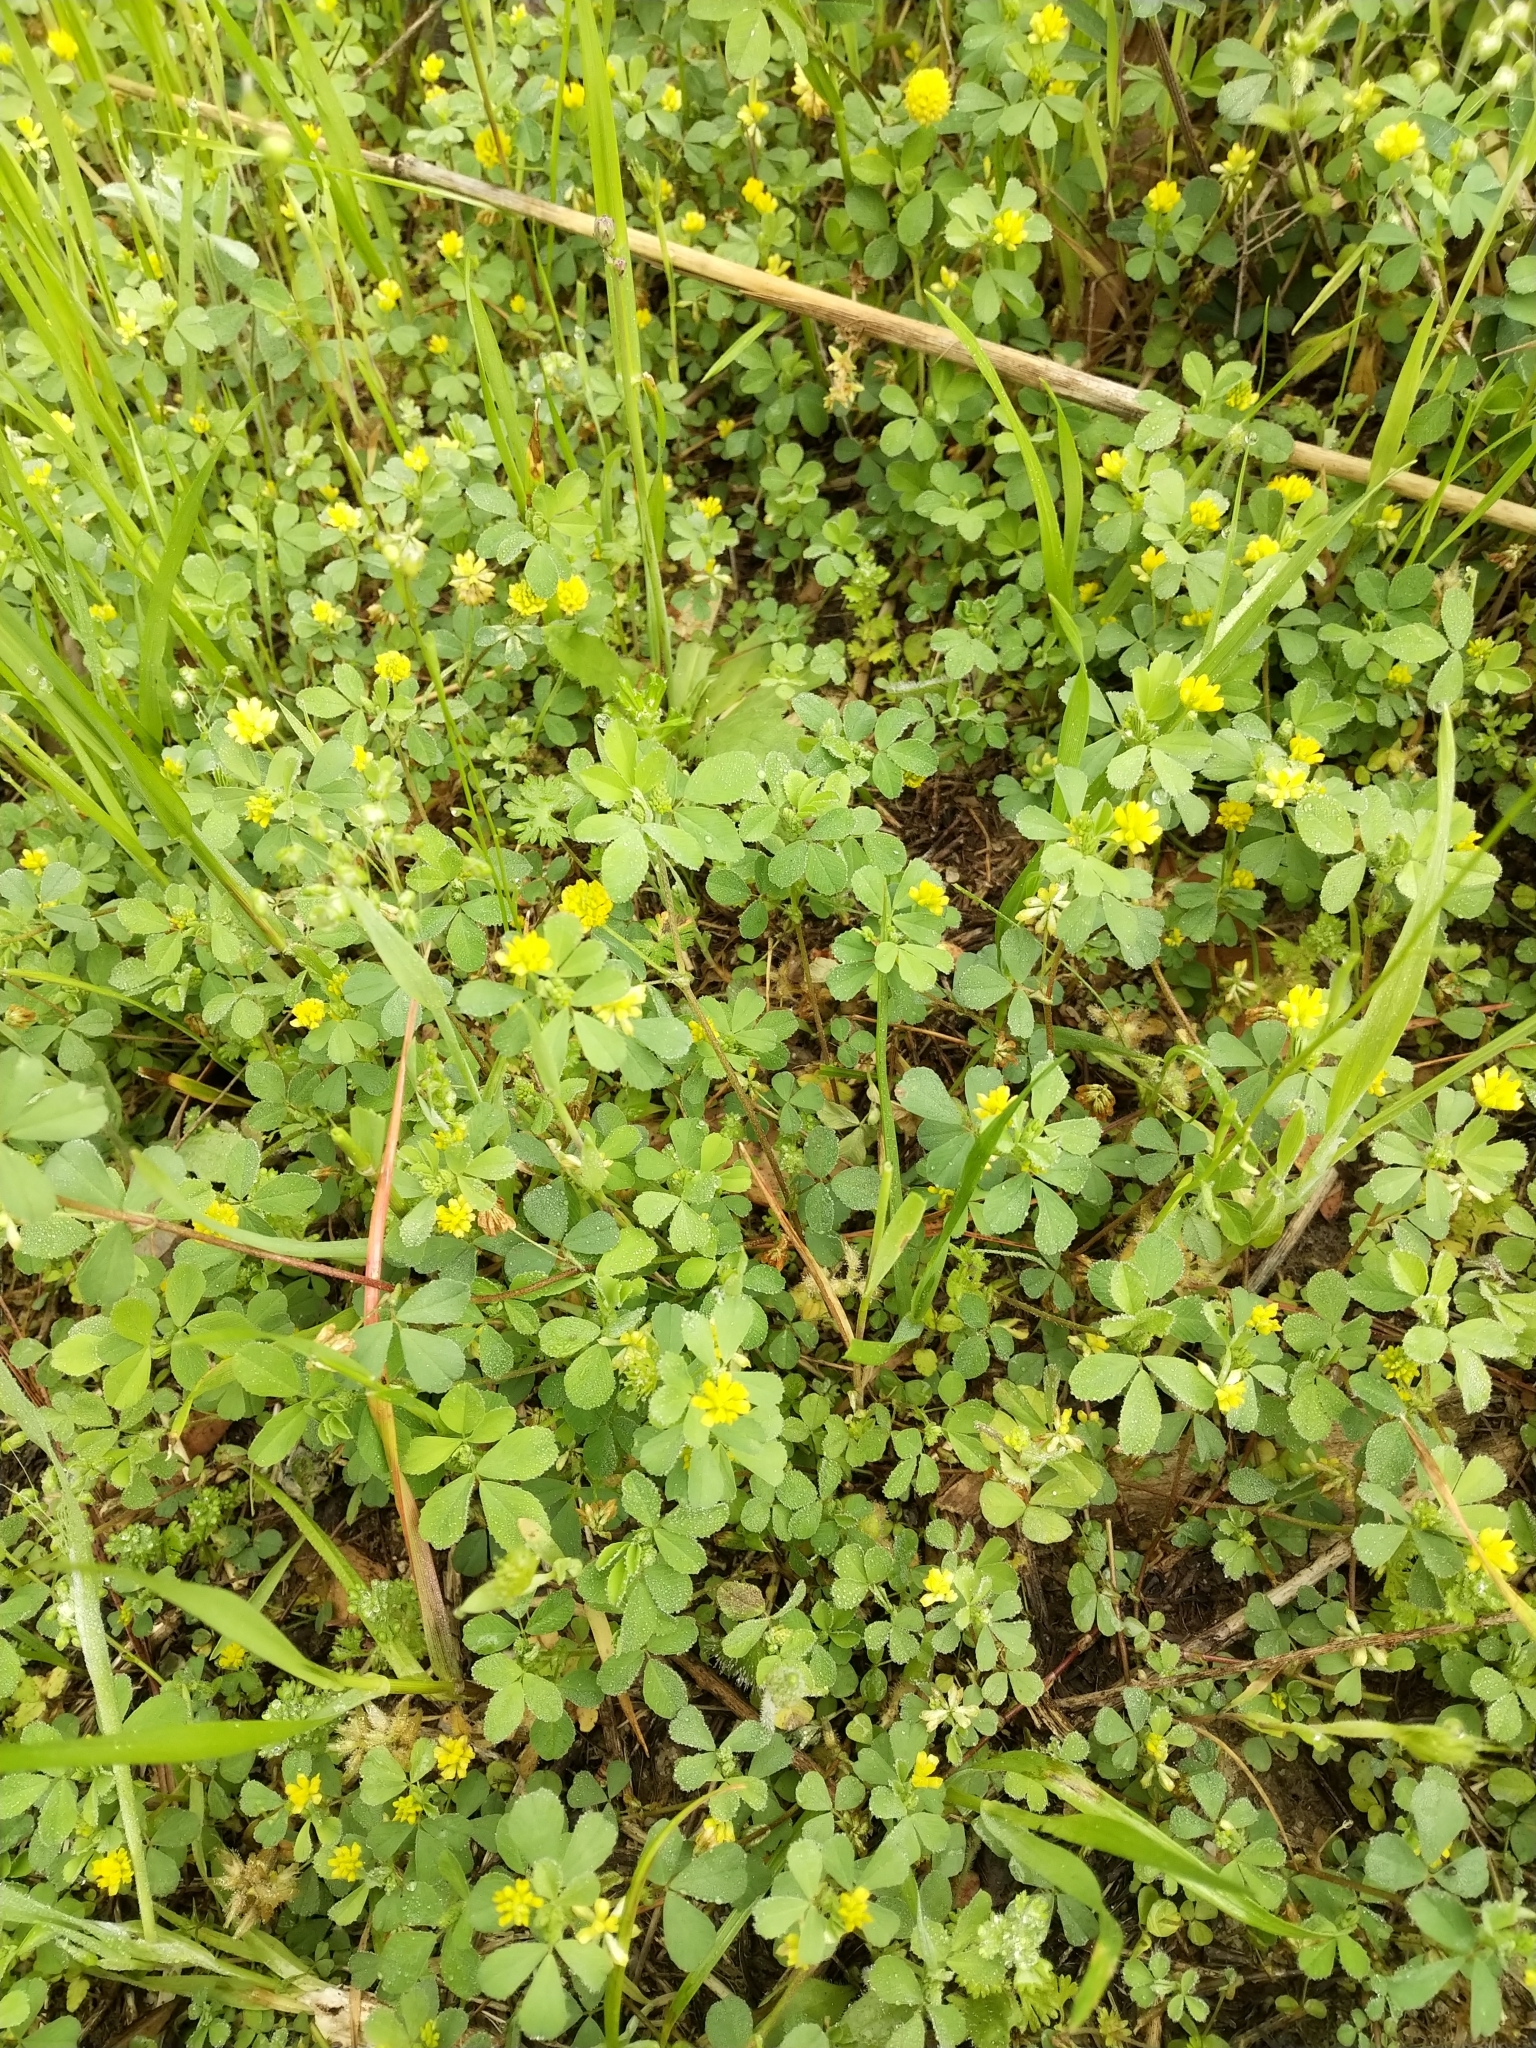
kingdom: Plantae
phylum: Tracheophyta
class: Magnoliopsida
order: Fabales
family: Fabaceae
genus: Trifolium
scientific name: Trifolium dubium
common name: Suckling clover
